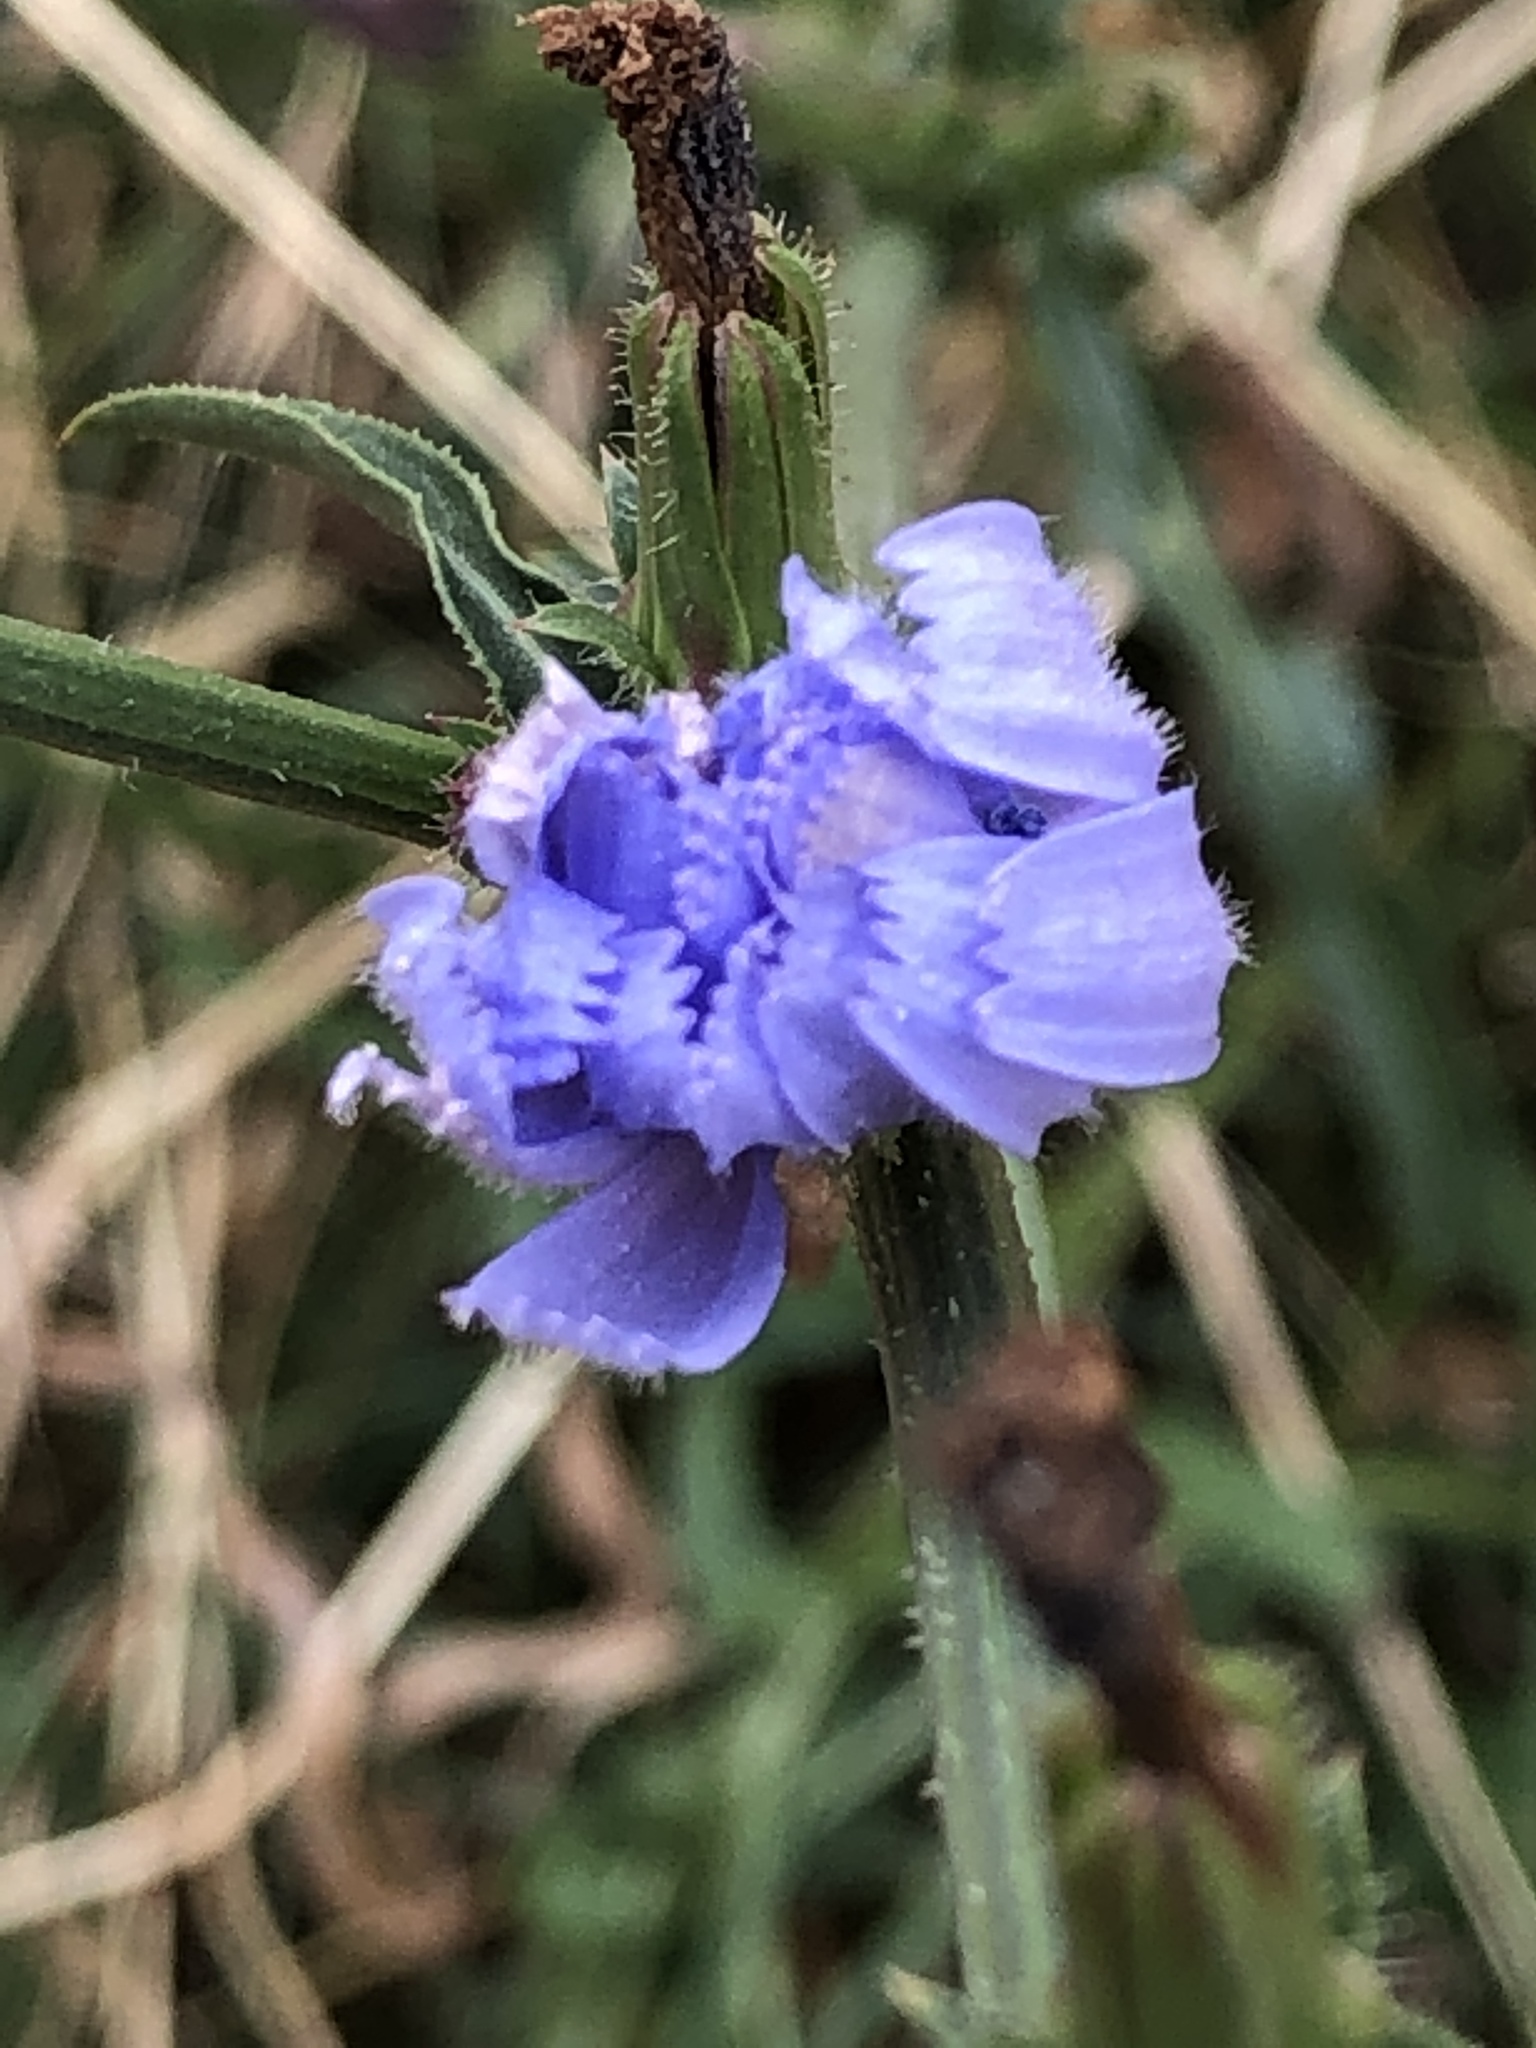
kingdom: Plantae
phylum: Tracheophyta
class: Magnoliopsida
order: Asterales
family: Asteraceae
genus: Cichorium
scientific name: Cichorium intybus
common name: Chicory
